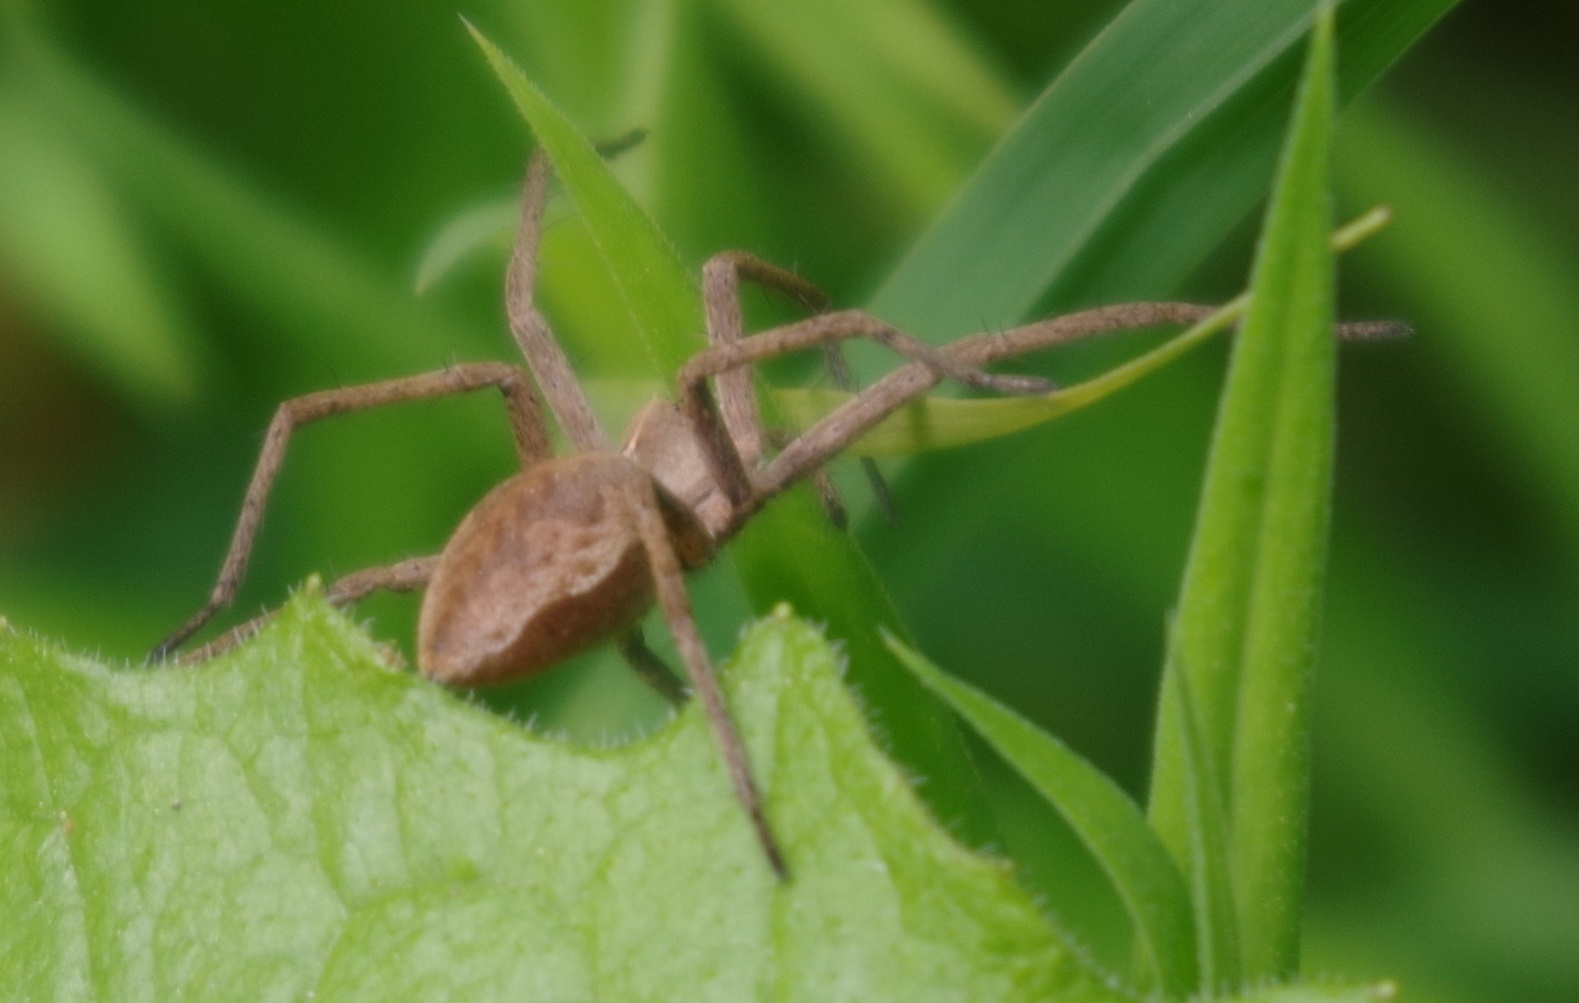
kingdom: Animalia
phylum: Arthropoda
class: Arachnida
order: Araneae
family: Pisauridae
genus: Pisaura
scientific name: Pisaura mirabilis
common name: Tent spider
